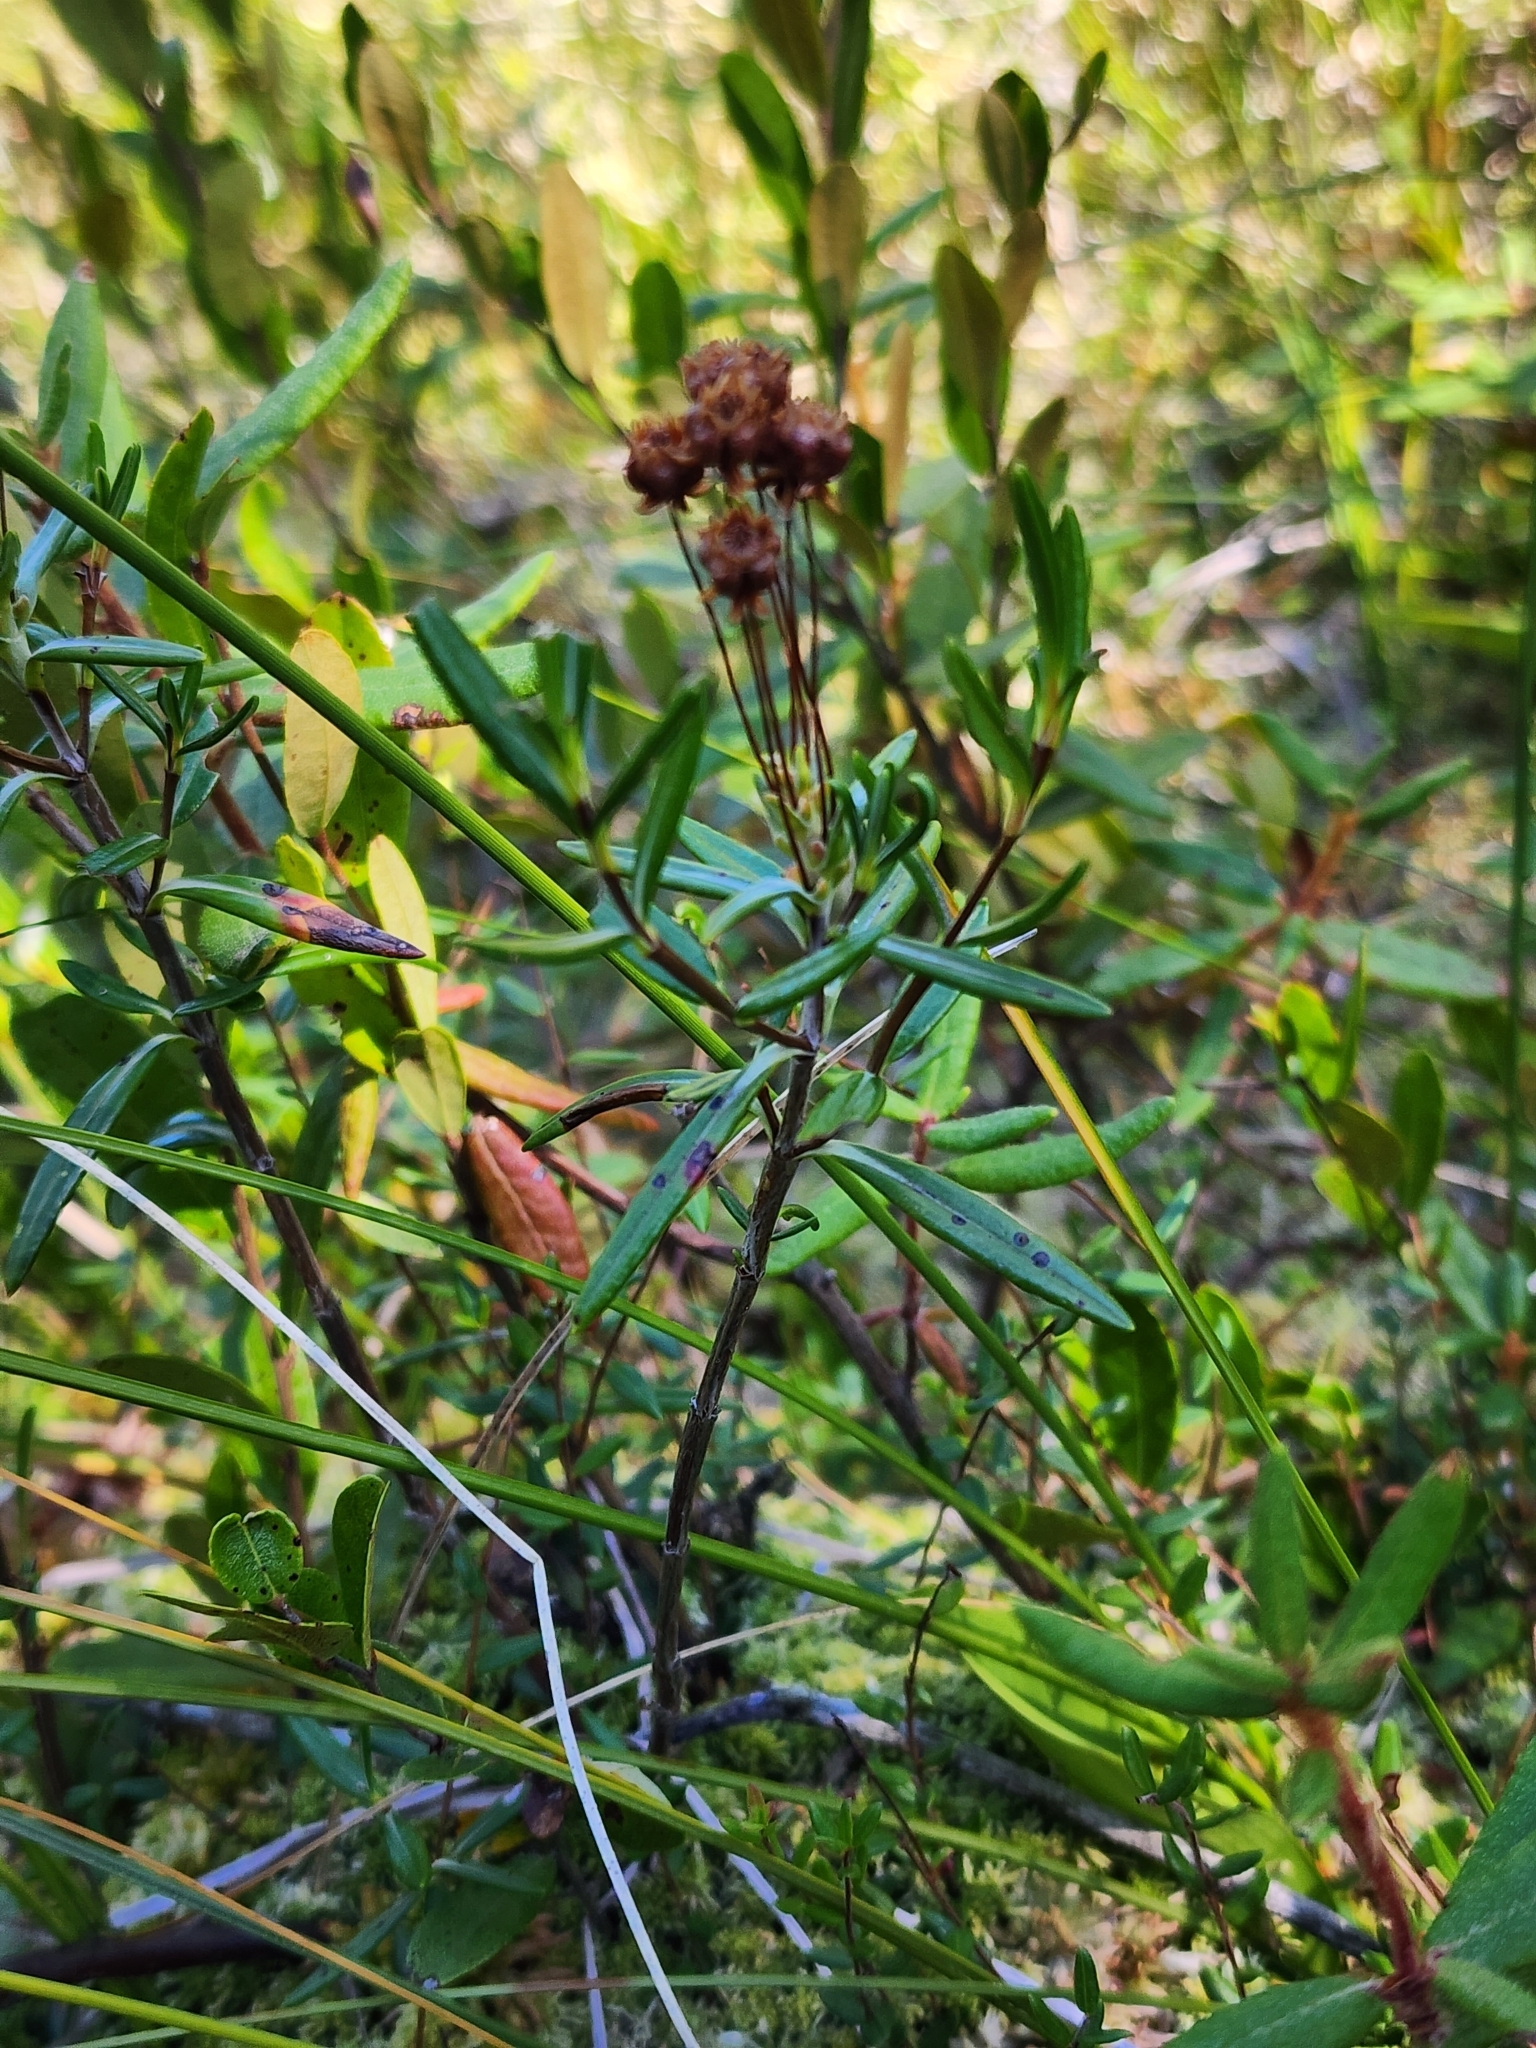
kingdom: Plantae
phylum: Tracheophyta
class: Magnoliopsida
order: Ericales
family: Ericaceae
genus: Kalmia
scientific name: Kalmia polifolia
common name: Bog-laurel
